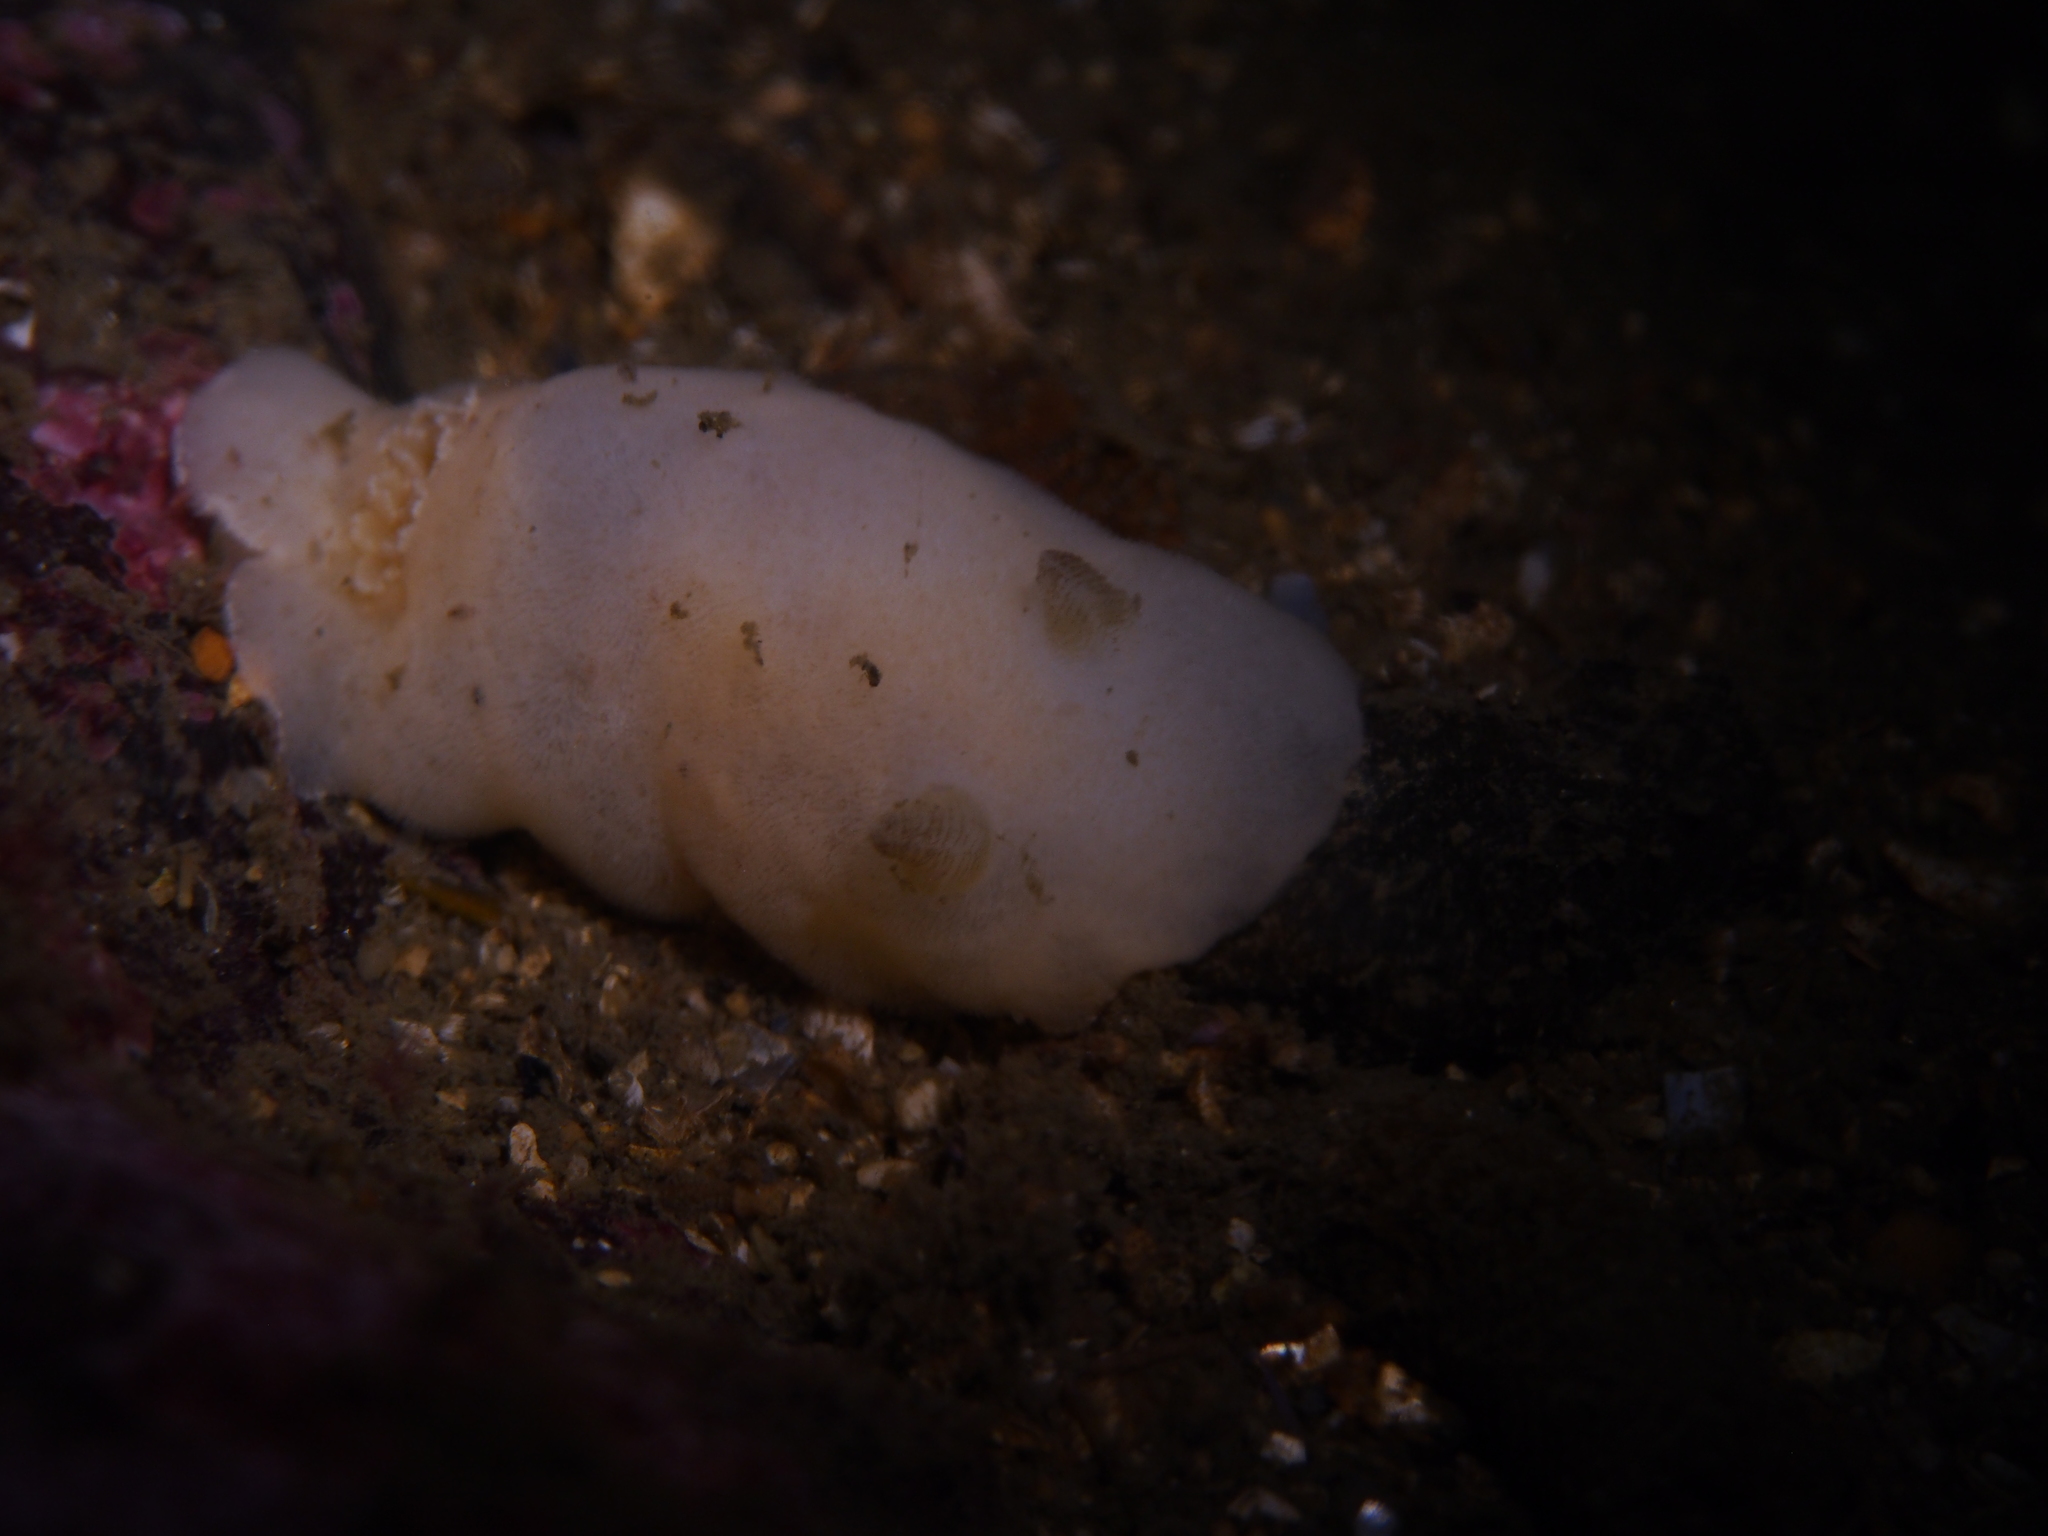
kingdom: Animalia
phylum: Mollusca
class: Gastropoda
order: Nudibranchia
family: Discodorididae
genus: Jorunna
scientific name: Jorunna tomentosa
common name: Grey sea slug
